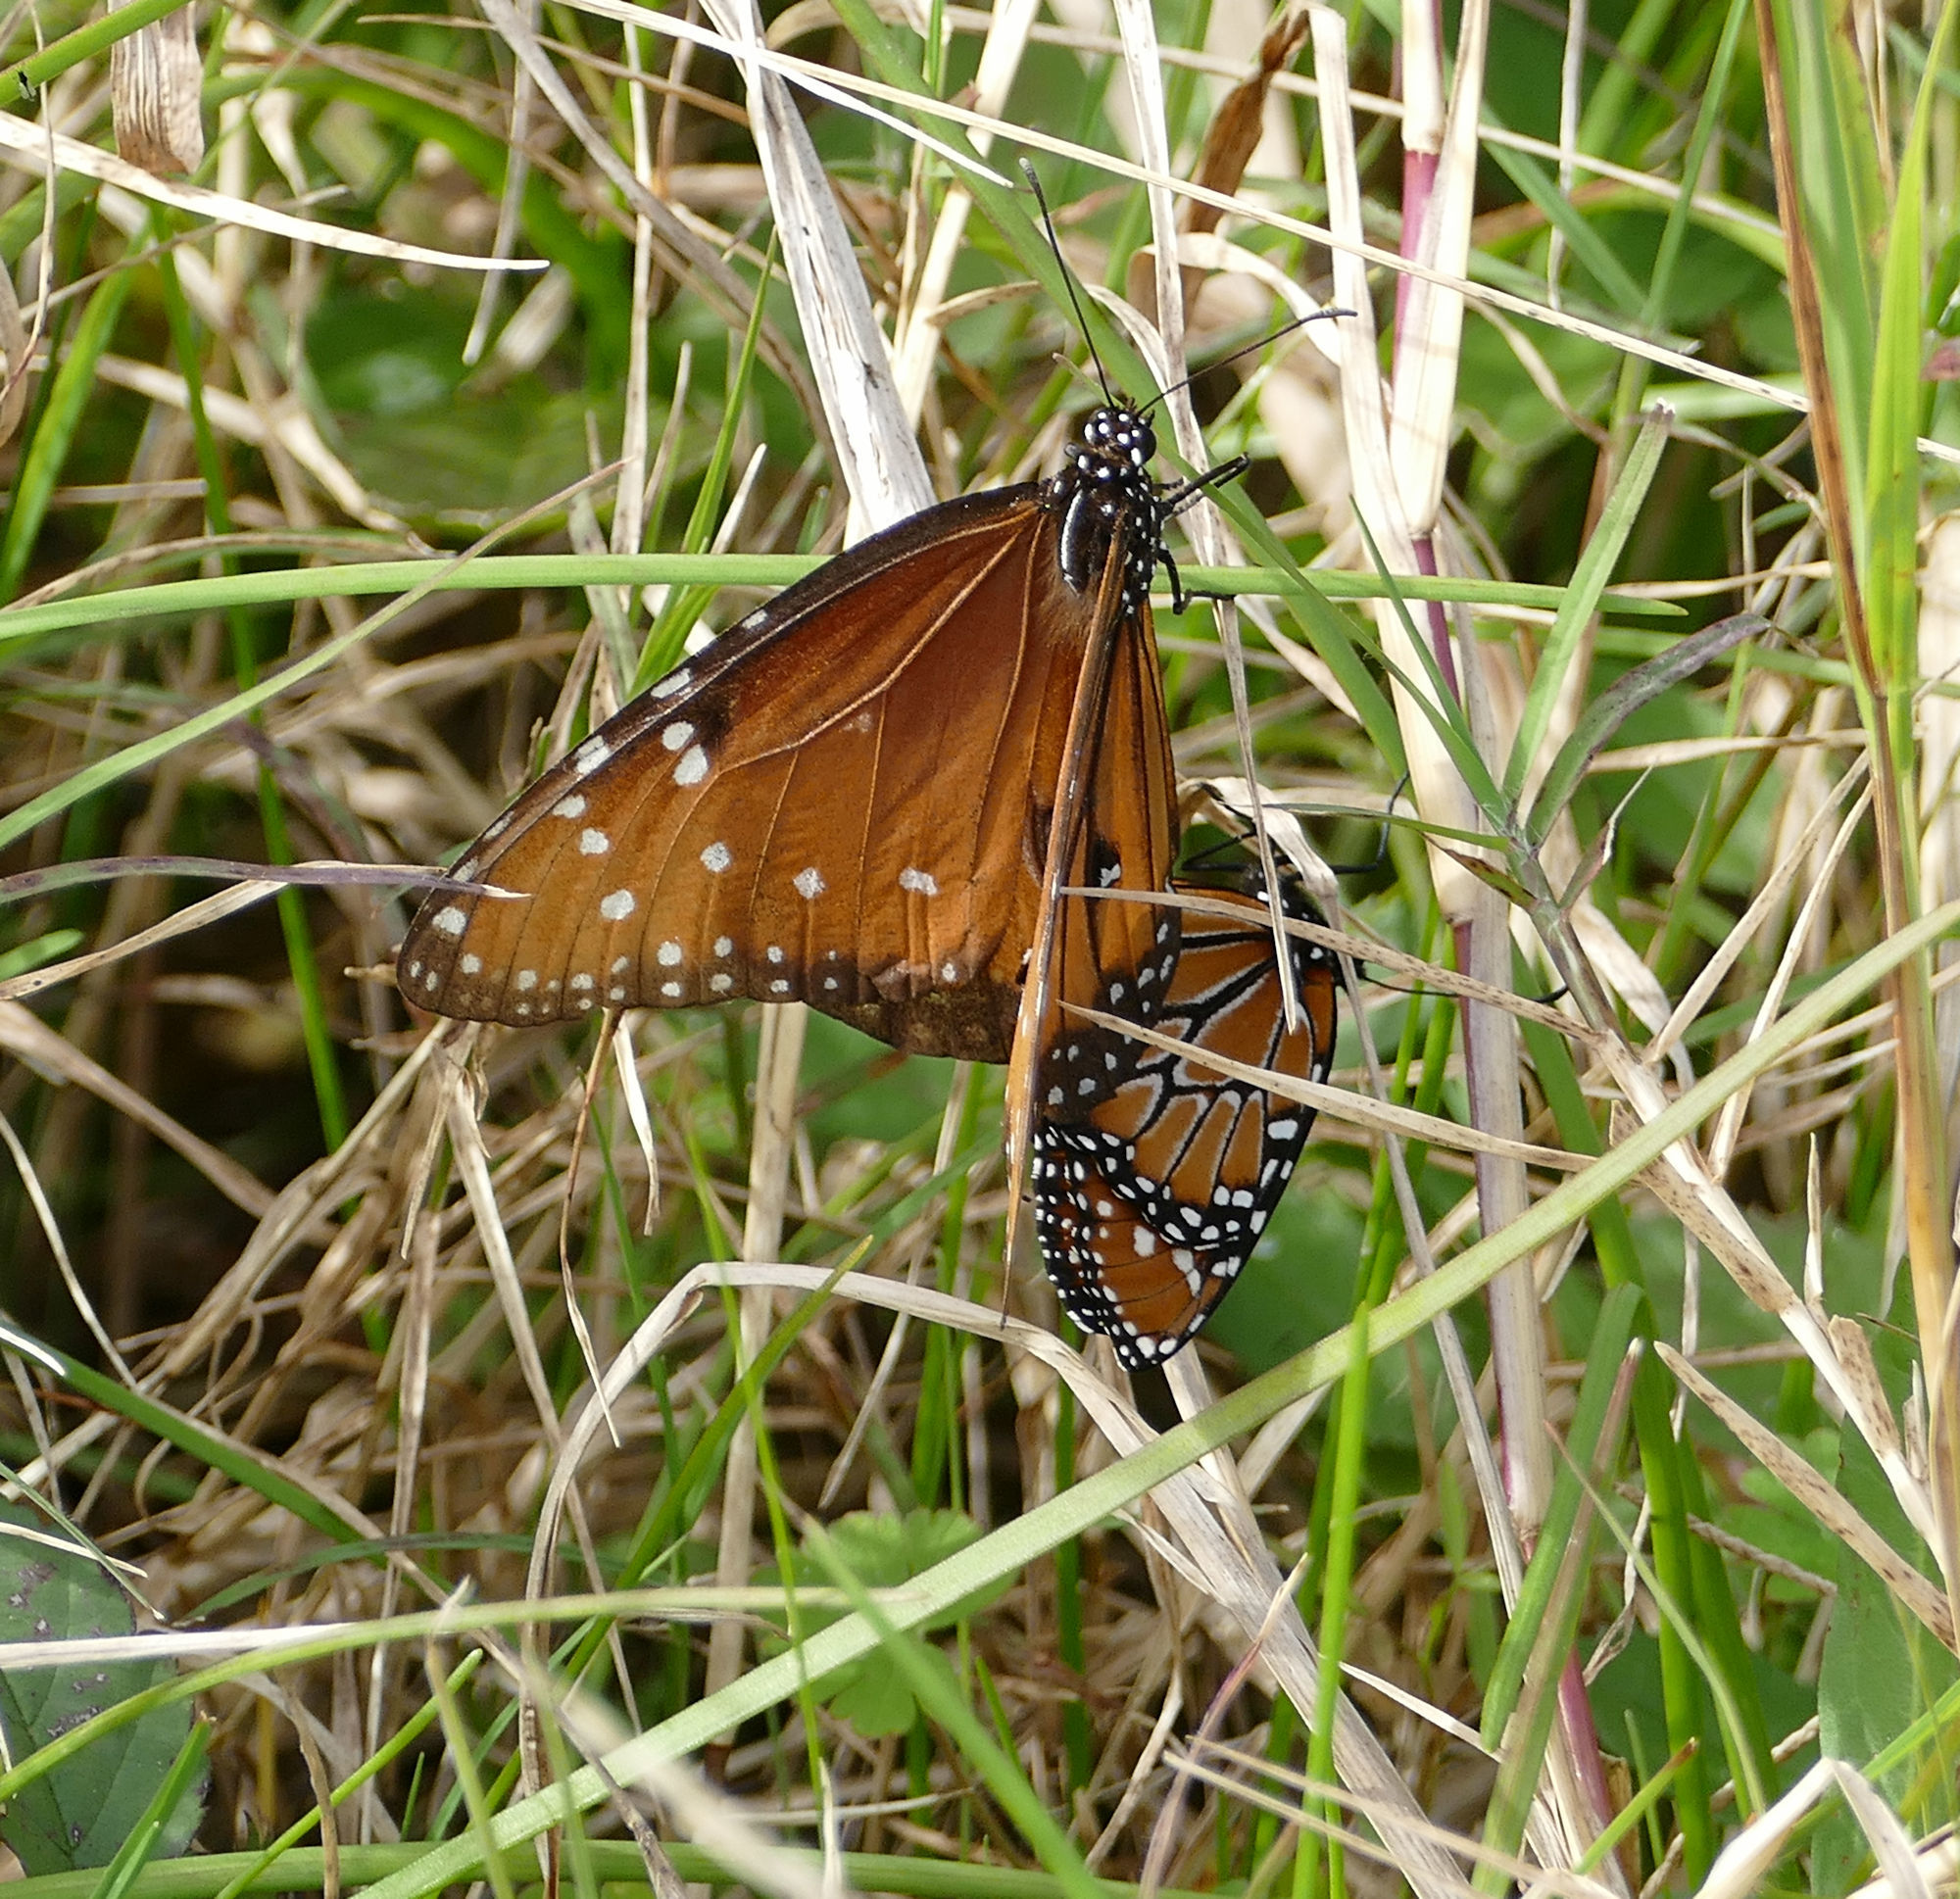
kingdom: Animalia
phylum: Arthropoda
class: Insecta
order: Lepidoptera
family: Nymphalidae
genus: Danaus
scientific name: Danaus gilippus
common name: Queen
